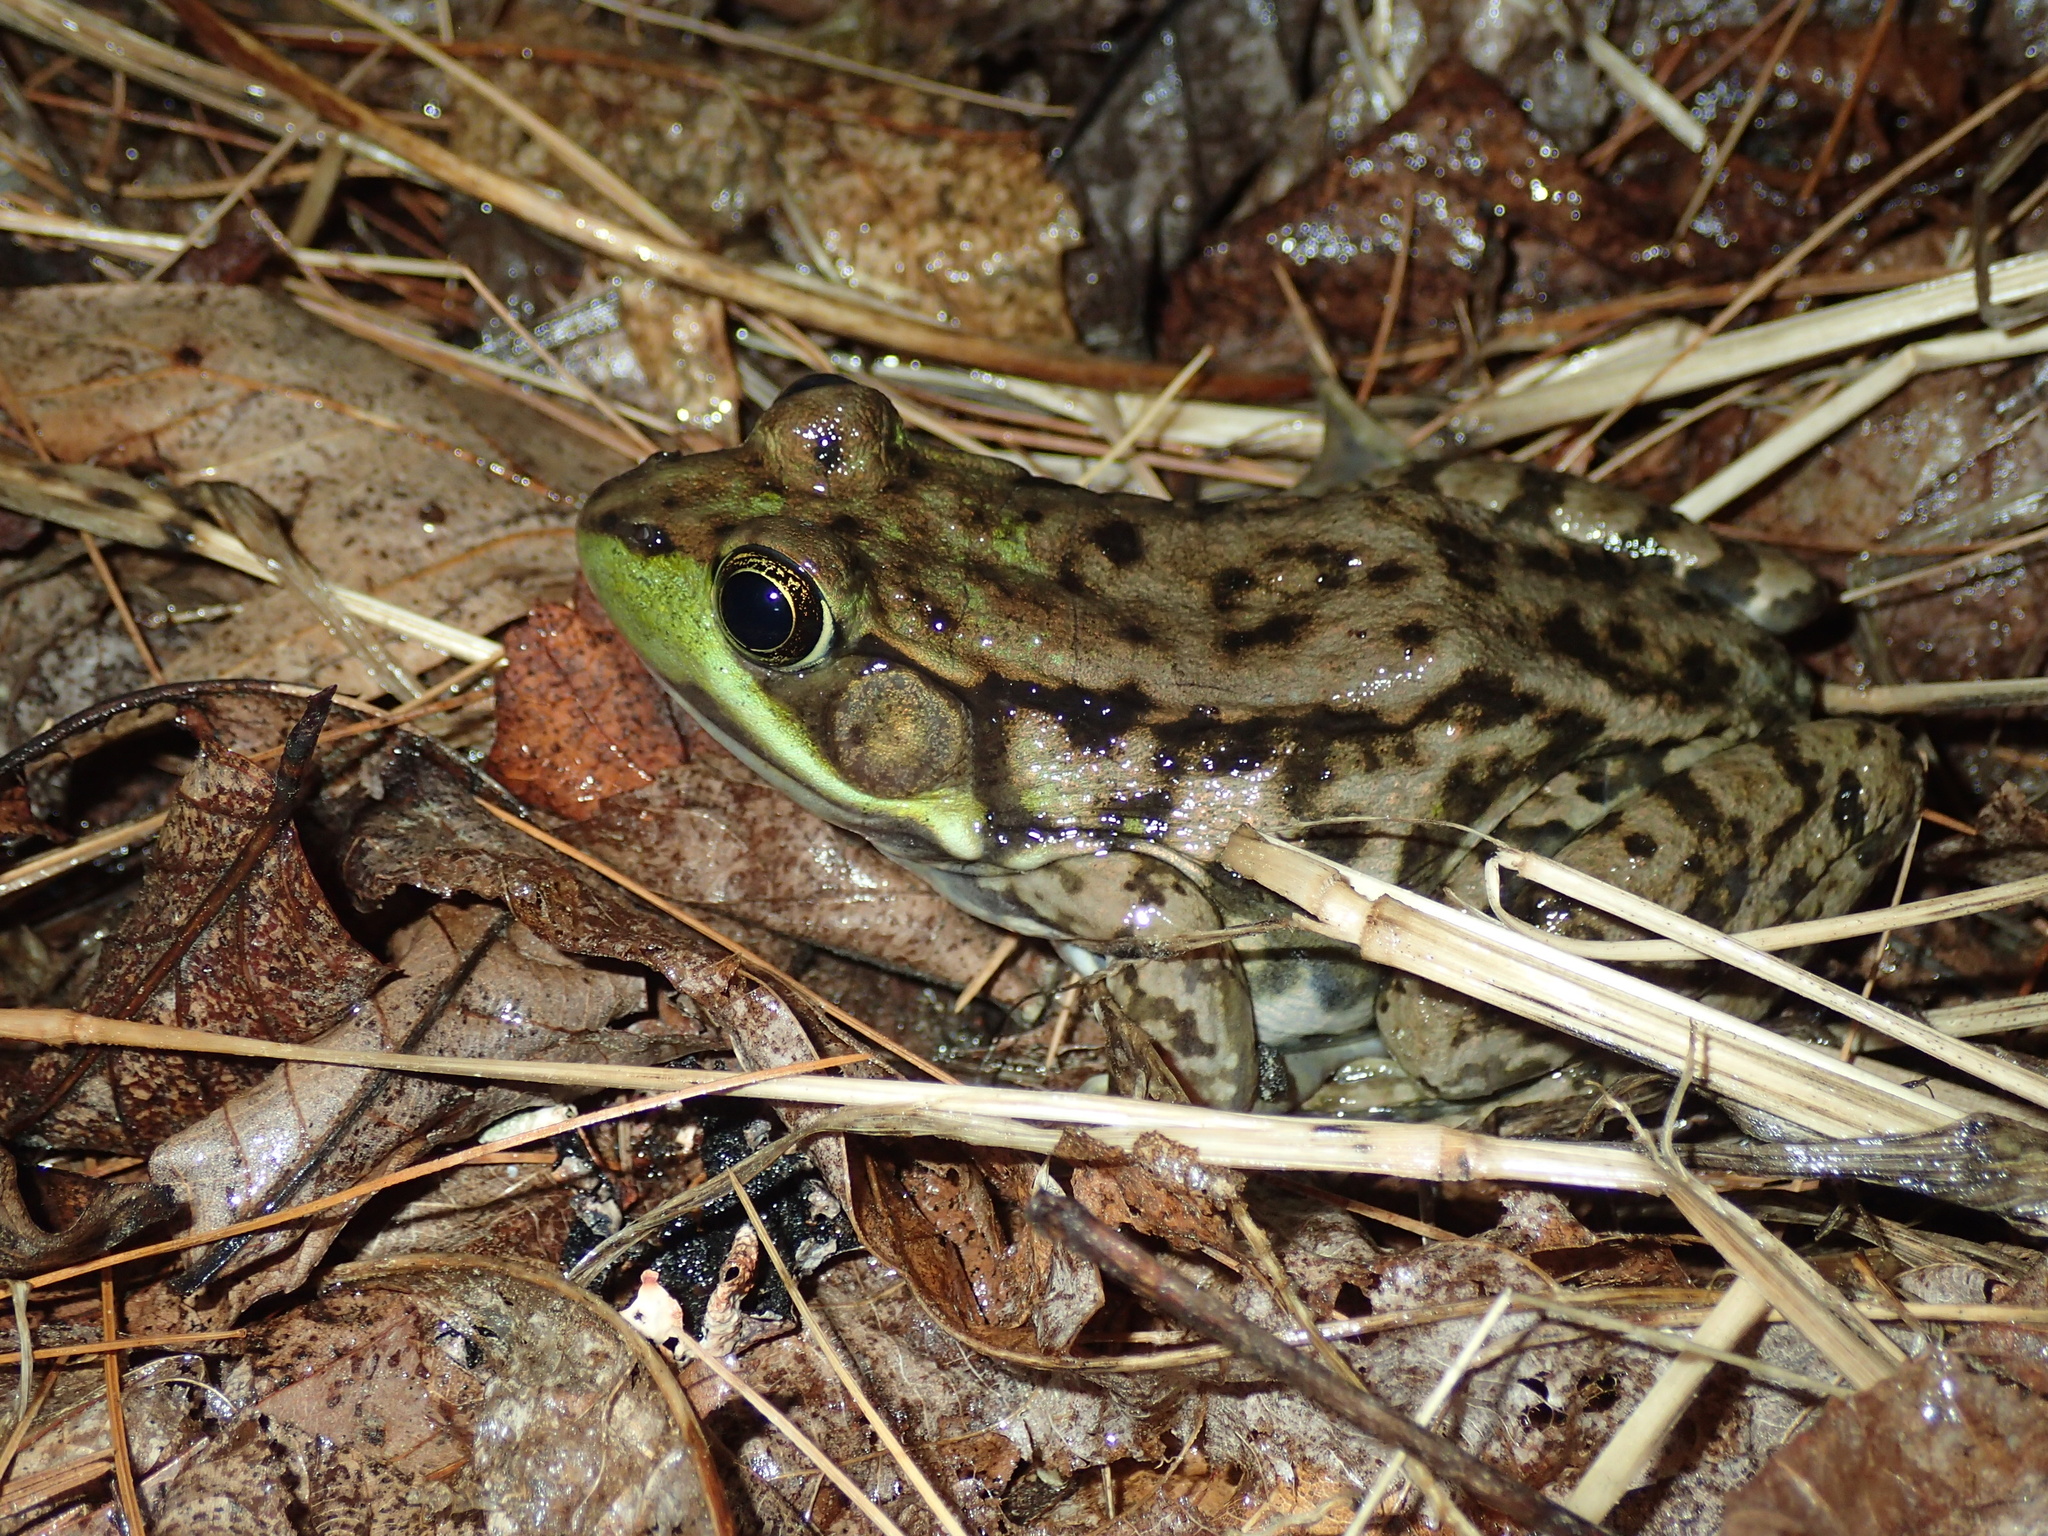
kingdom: Animalia
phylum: Chordata
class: Amphibia
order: Anura
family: Ranidae
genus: Lithobates
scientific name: Lithobates clamitans
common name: Green frog
